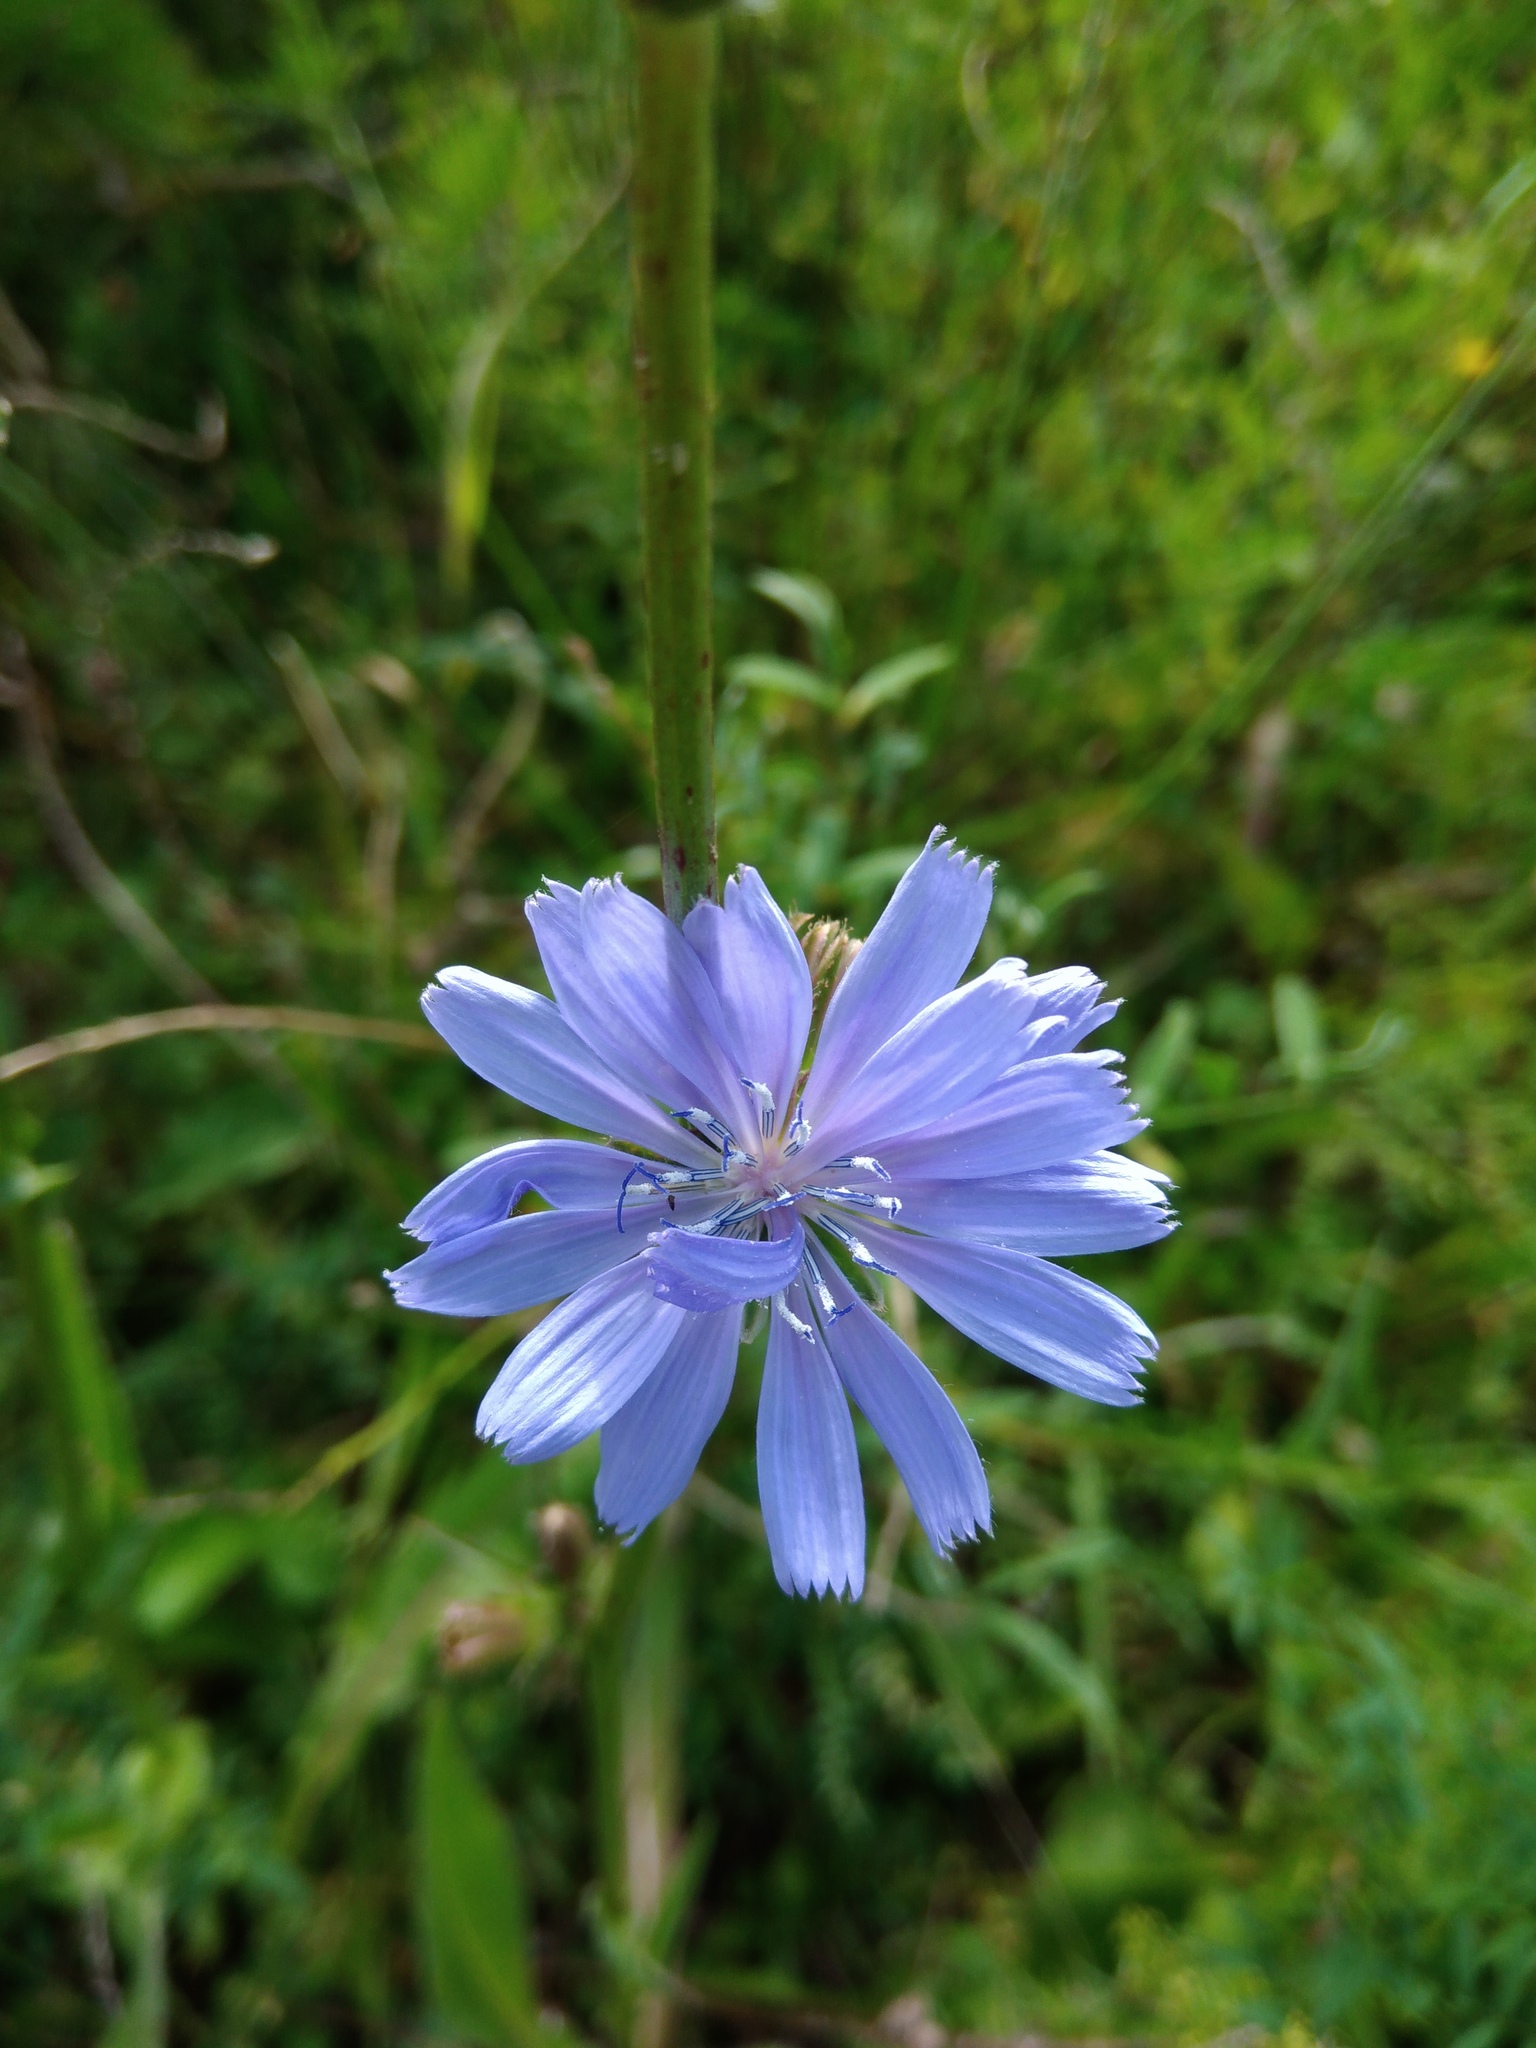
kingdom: Plantae
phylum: Tracheophyta
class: Magnoliopsida
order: Asterales
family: Asteraceae
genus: Cichorium
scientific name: Cichorium intybus
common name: Chicory
